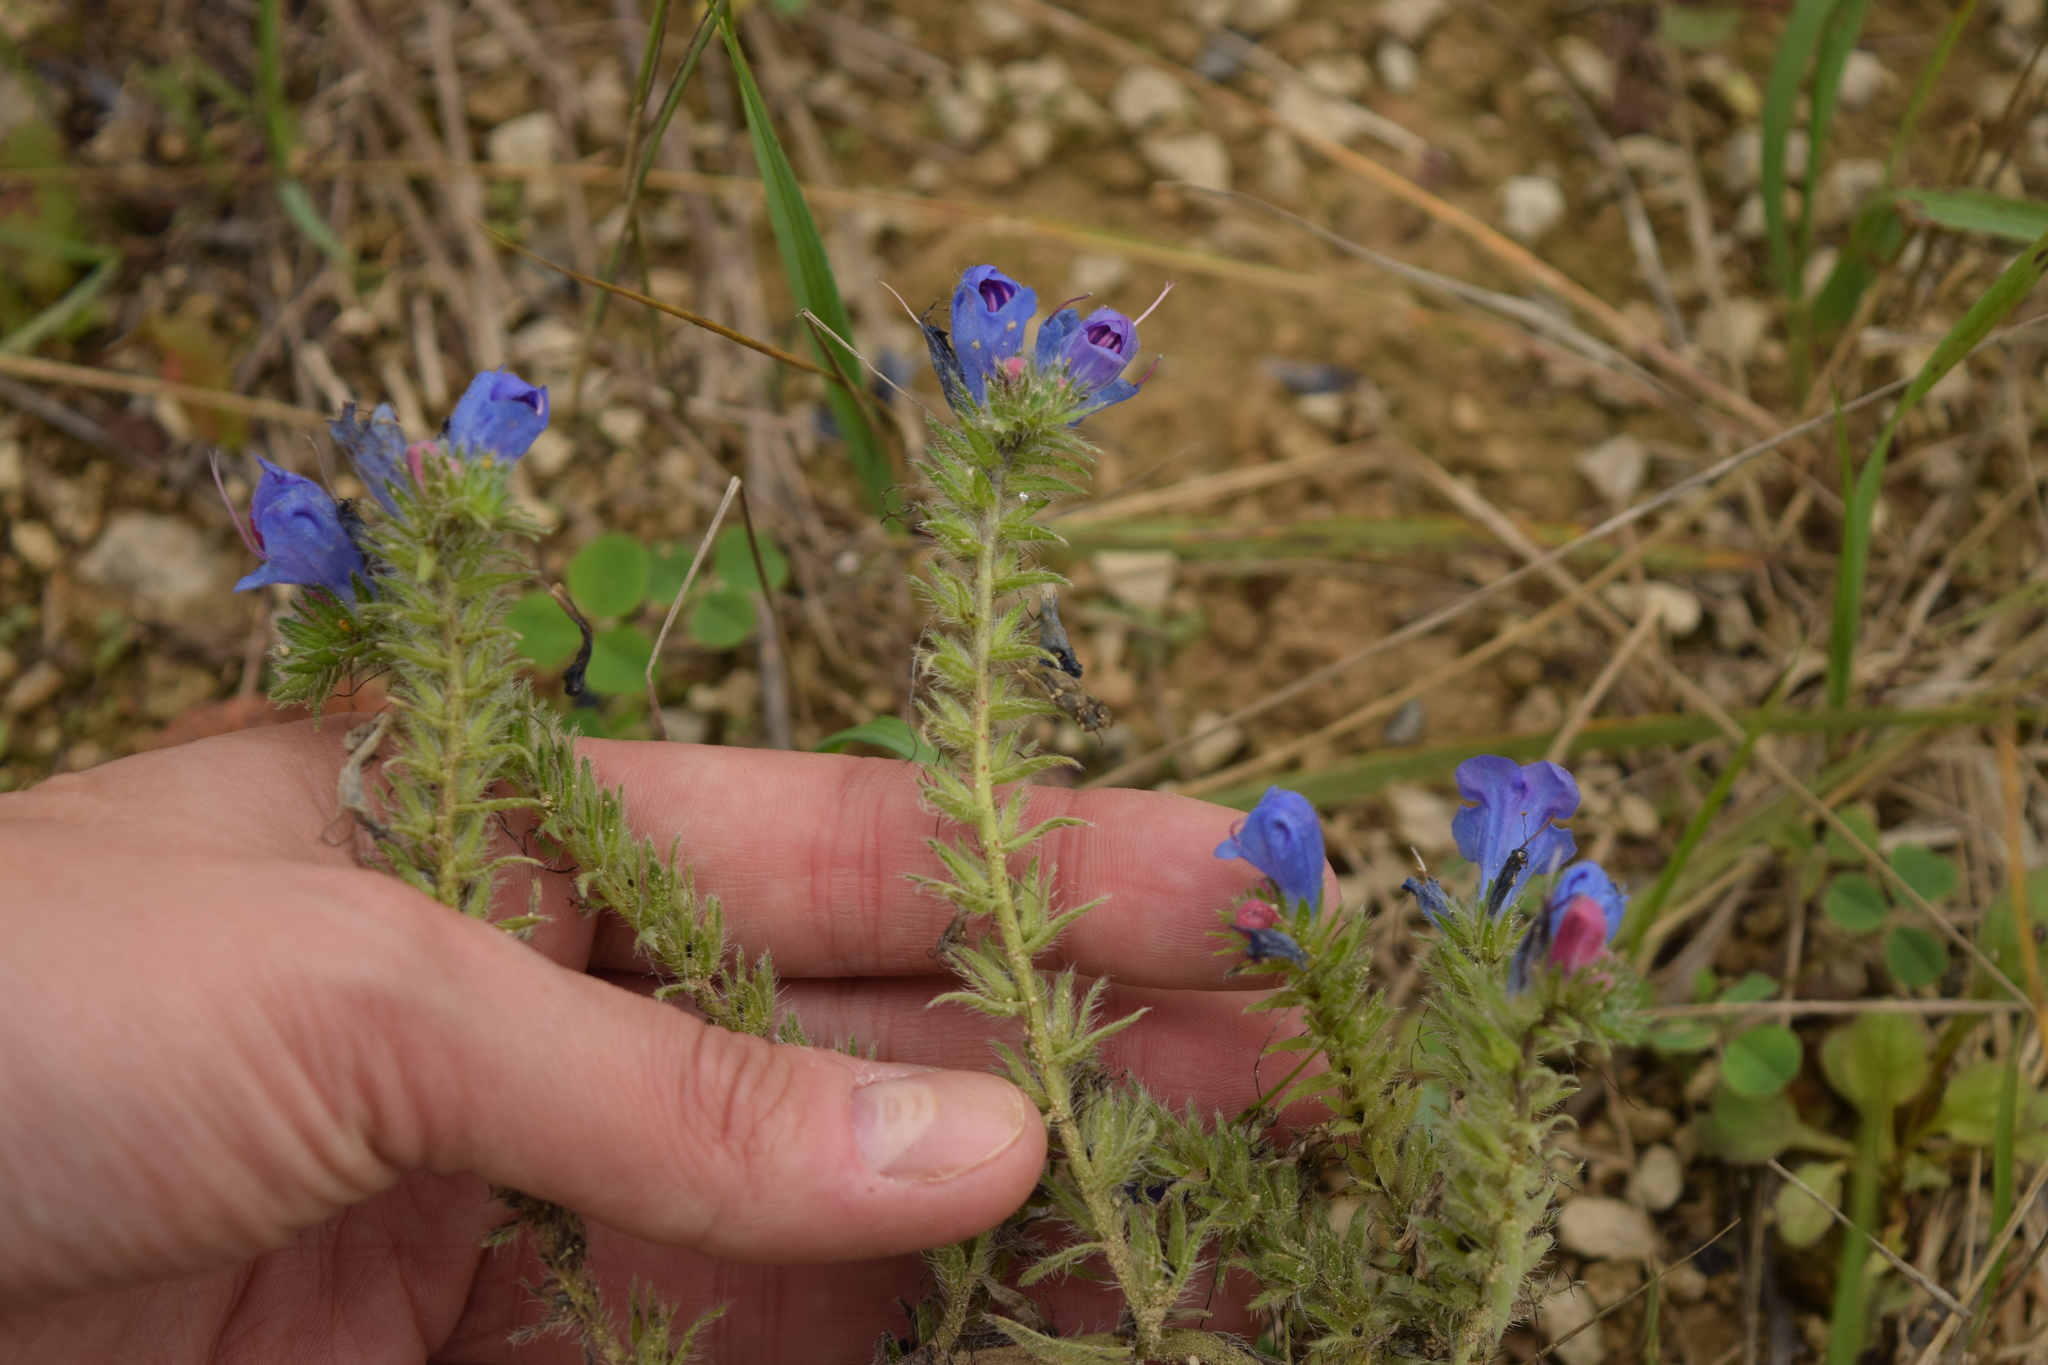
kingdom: Plantae
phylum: Tracheophyta
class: Magnoliopsida
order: Boraginales
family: Boraginaceae
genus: Echium
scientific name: Echium vulgare
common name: Common viper's bugloss
